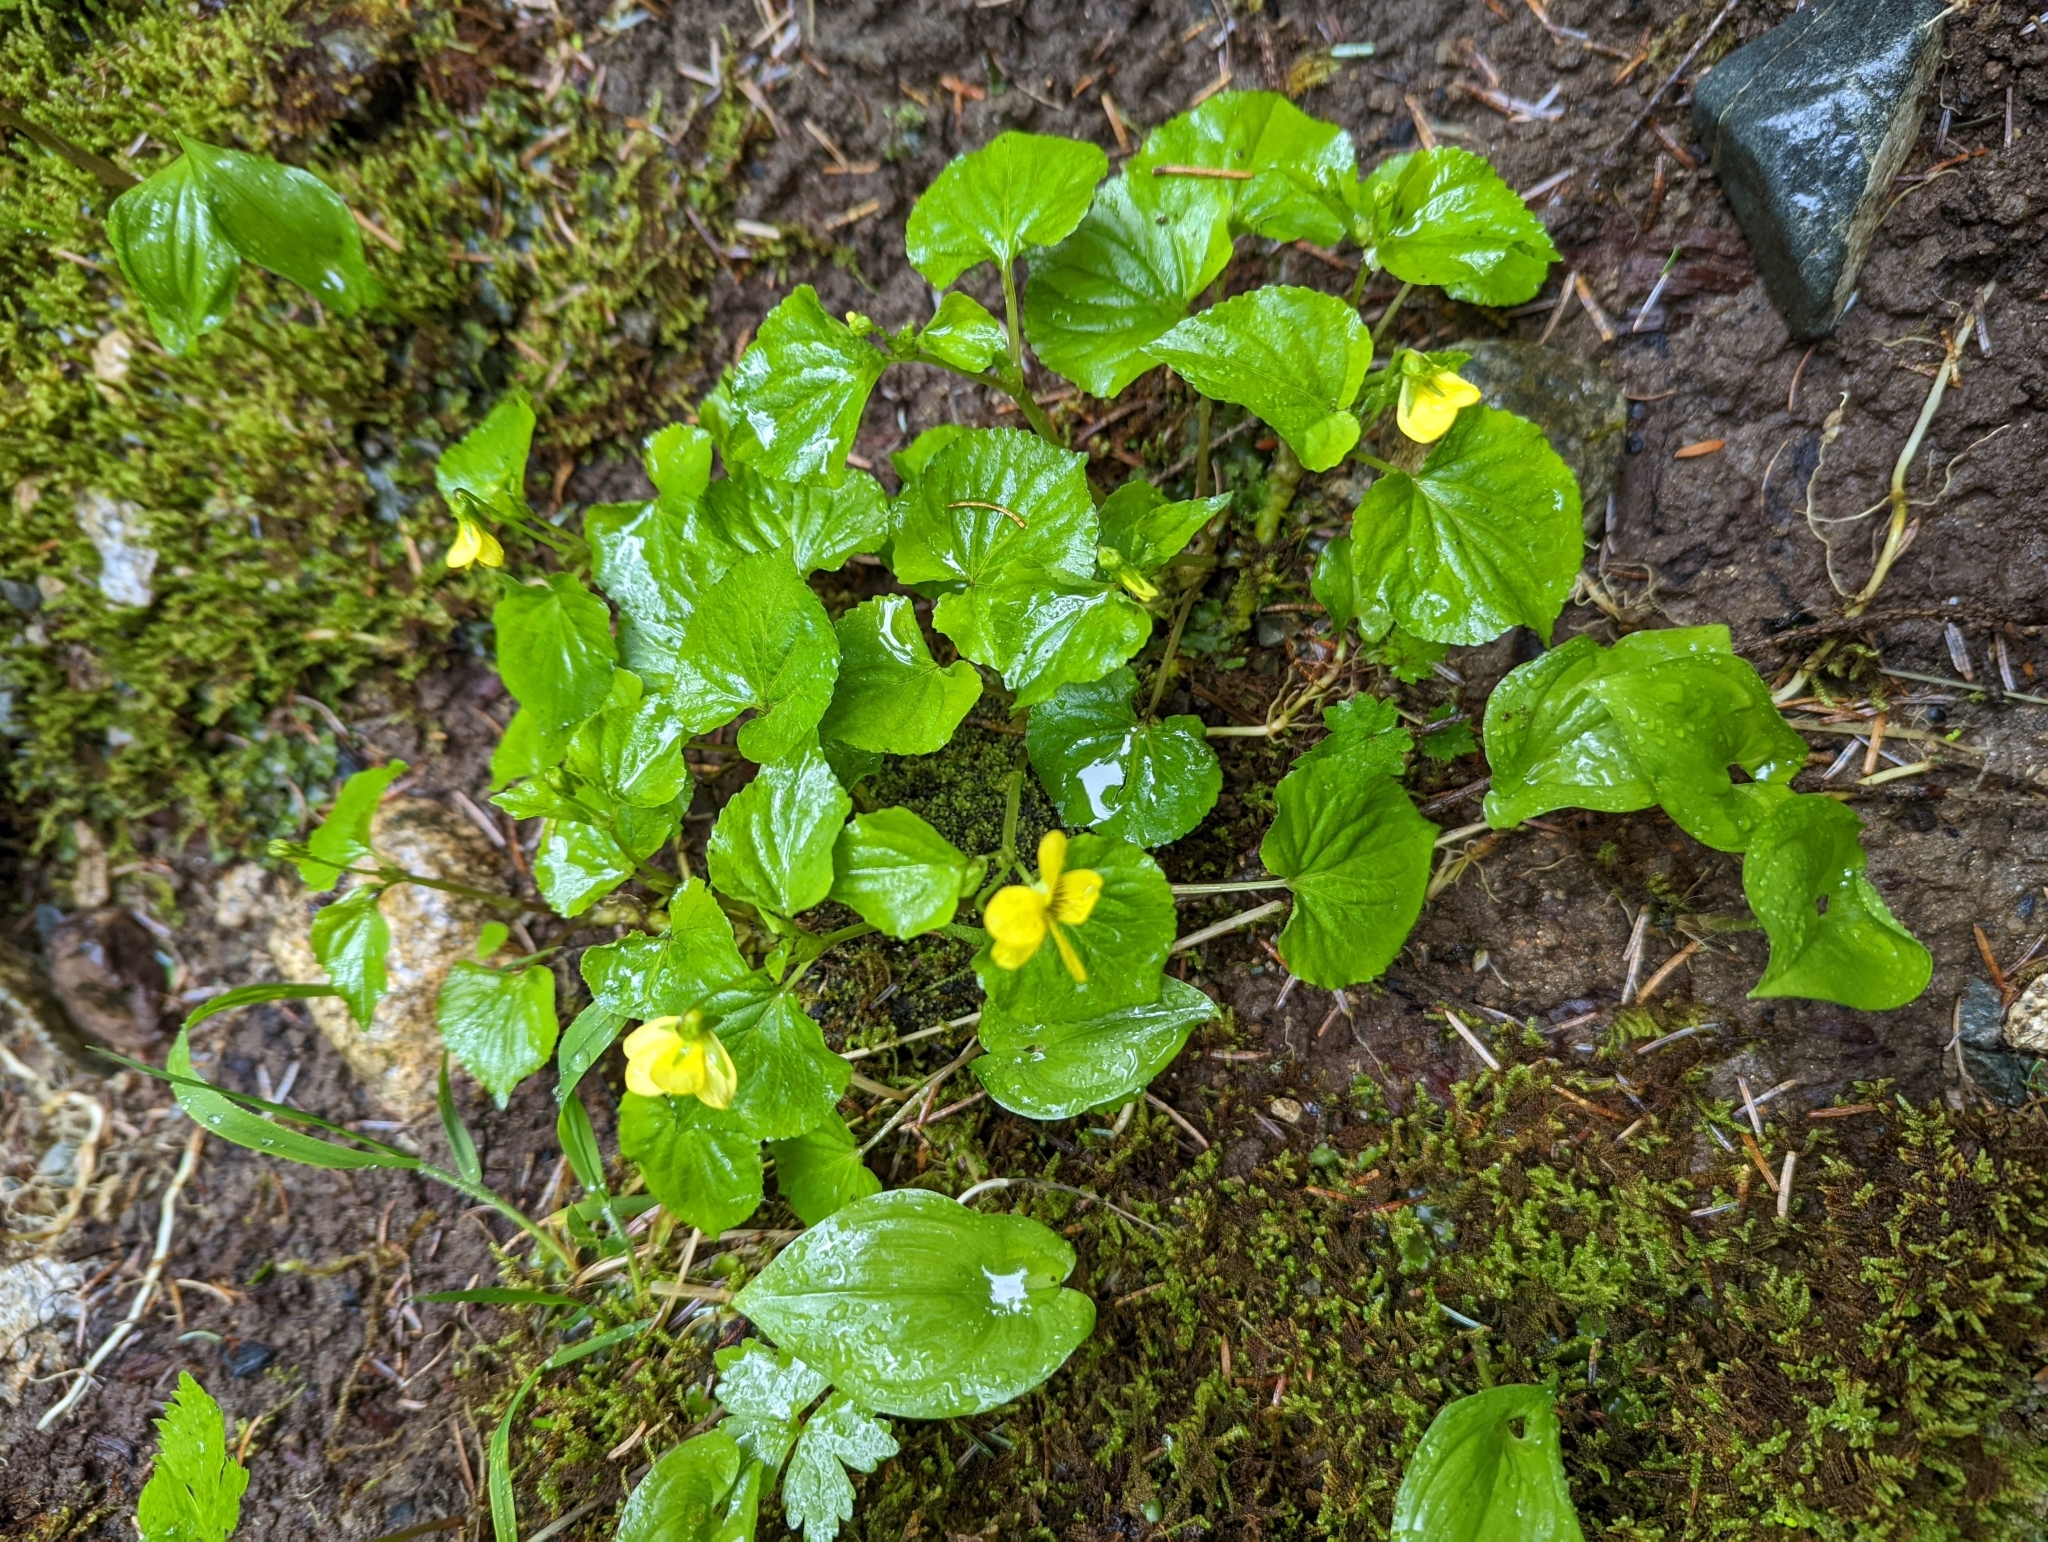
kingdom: Plantae
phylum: Tracheophyta
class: Magnoliopsida
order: Malpighiales
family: Violaceae
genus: Viola
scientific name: Viola glabella
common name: Stream violet
